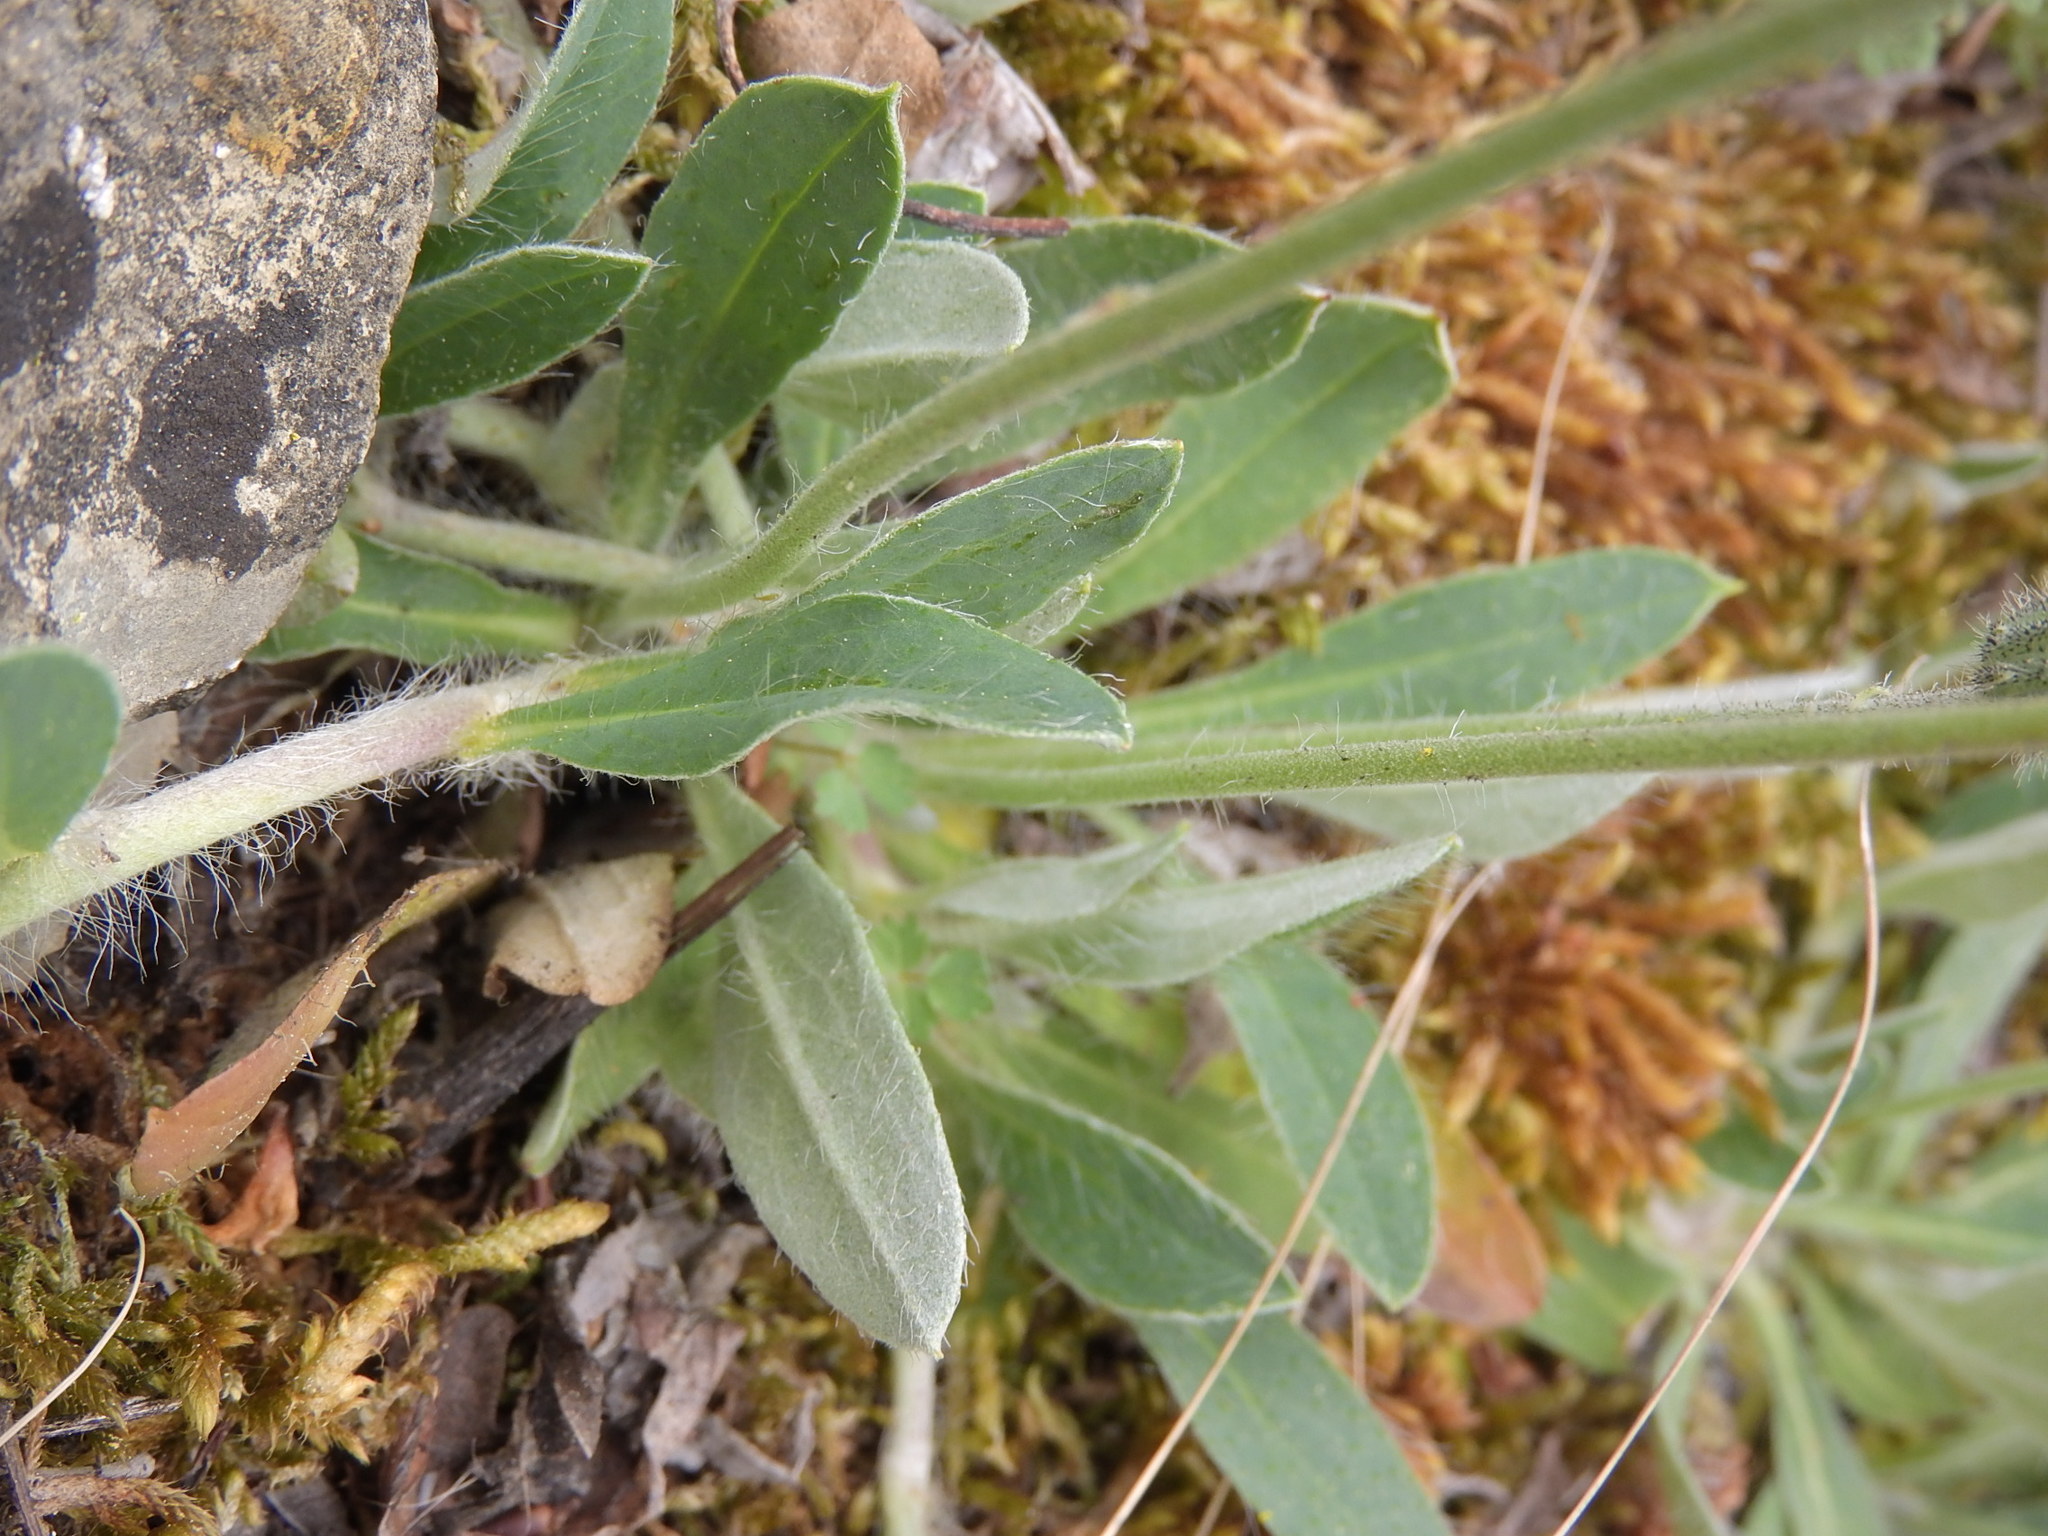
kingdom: Plantae
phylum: Tracheophyta
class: Magnoliopsida
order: Asterales
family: Asteraceae
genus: Pilosella
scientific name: Pilosella officinarum
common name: Mouse-ear hawkweed
